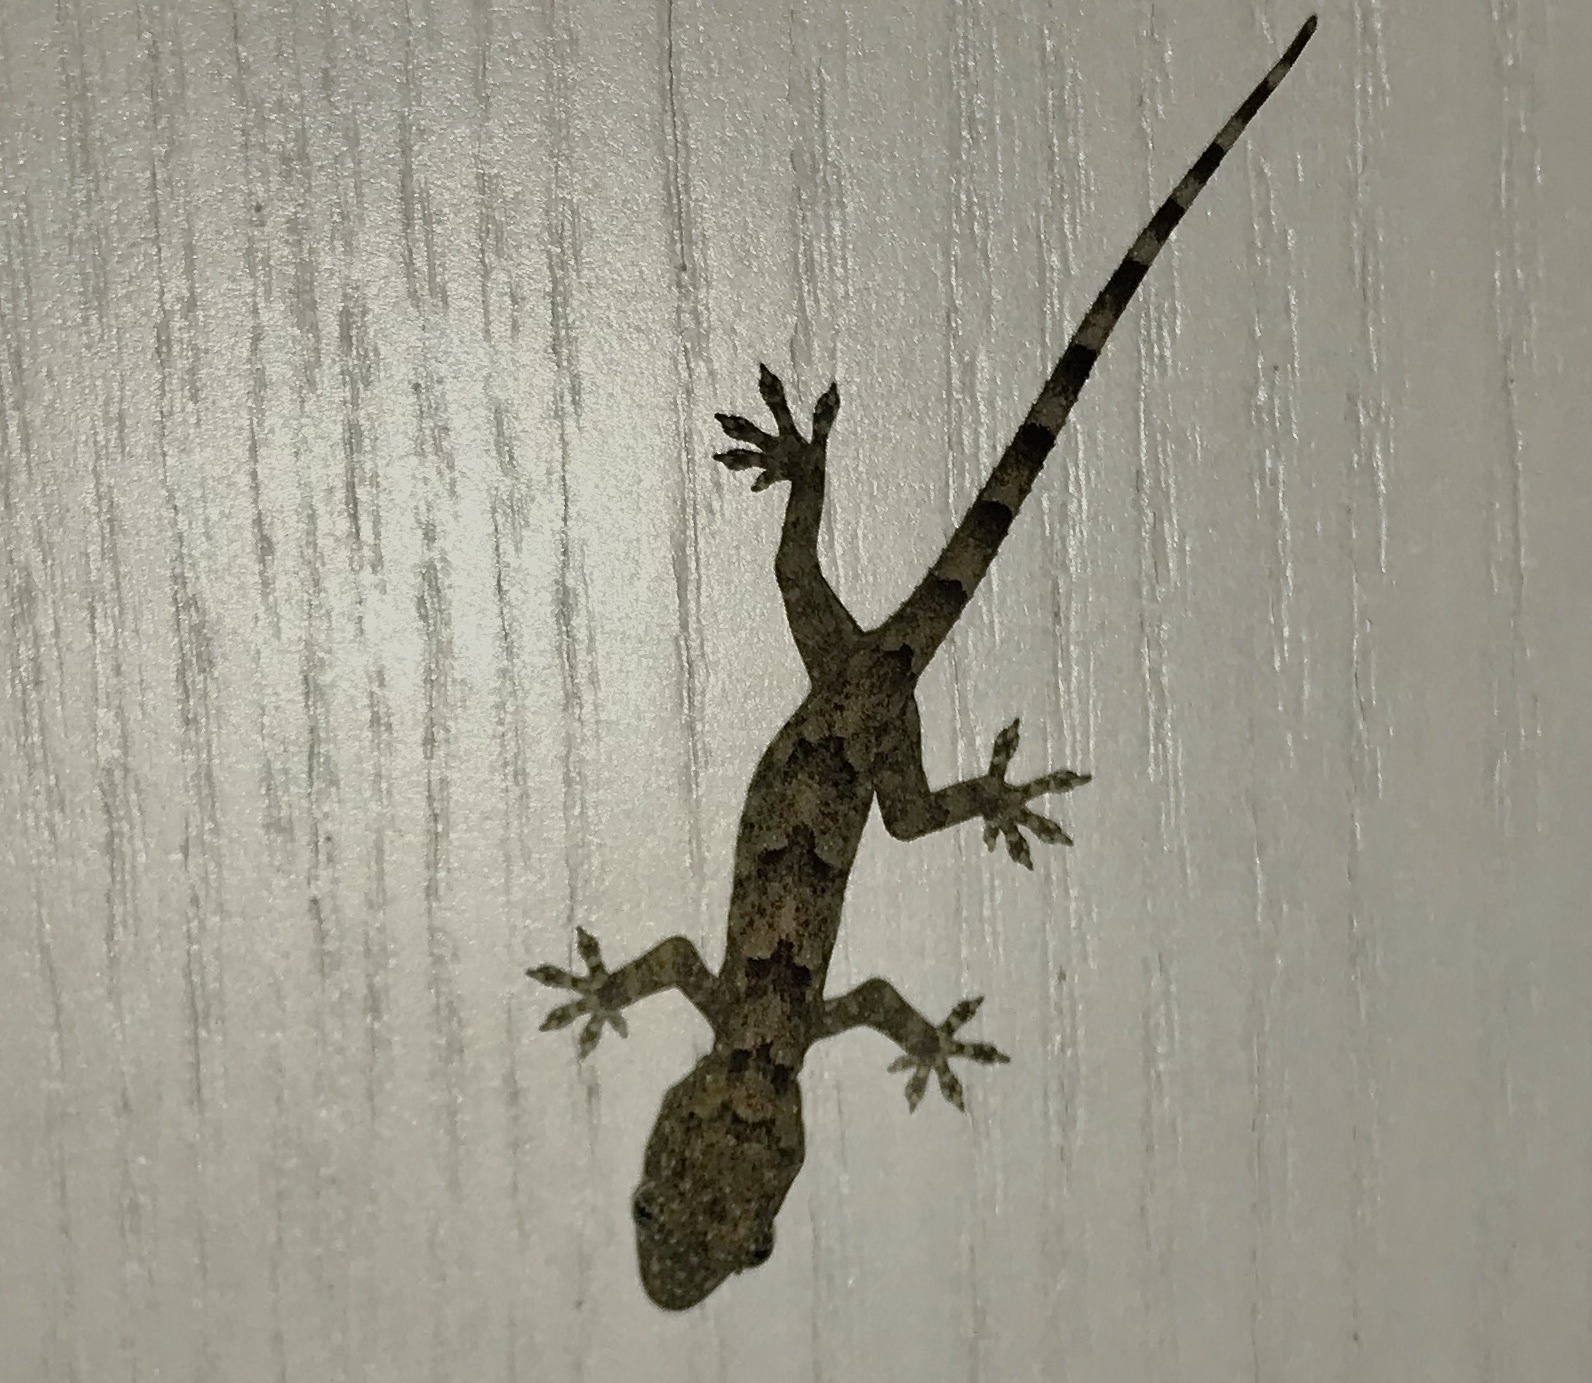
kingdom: Animalia
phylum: Chordata
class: Squamata
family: Gekkonidae
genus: Hemidactylus
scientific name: Hemidactylus mabouia
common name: House gecko
